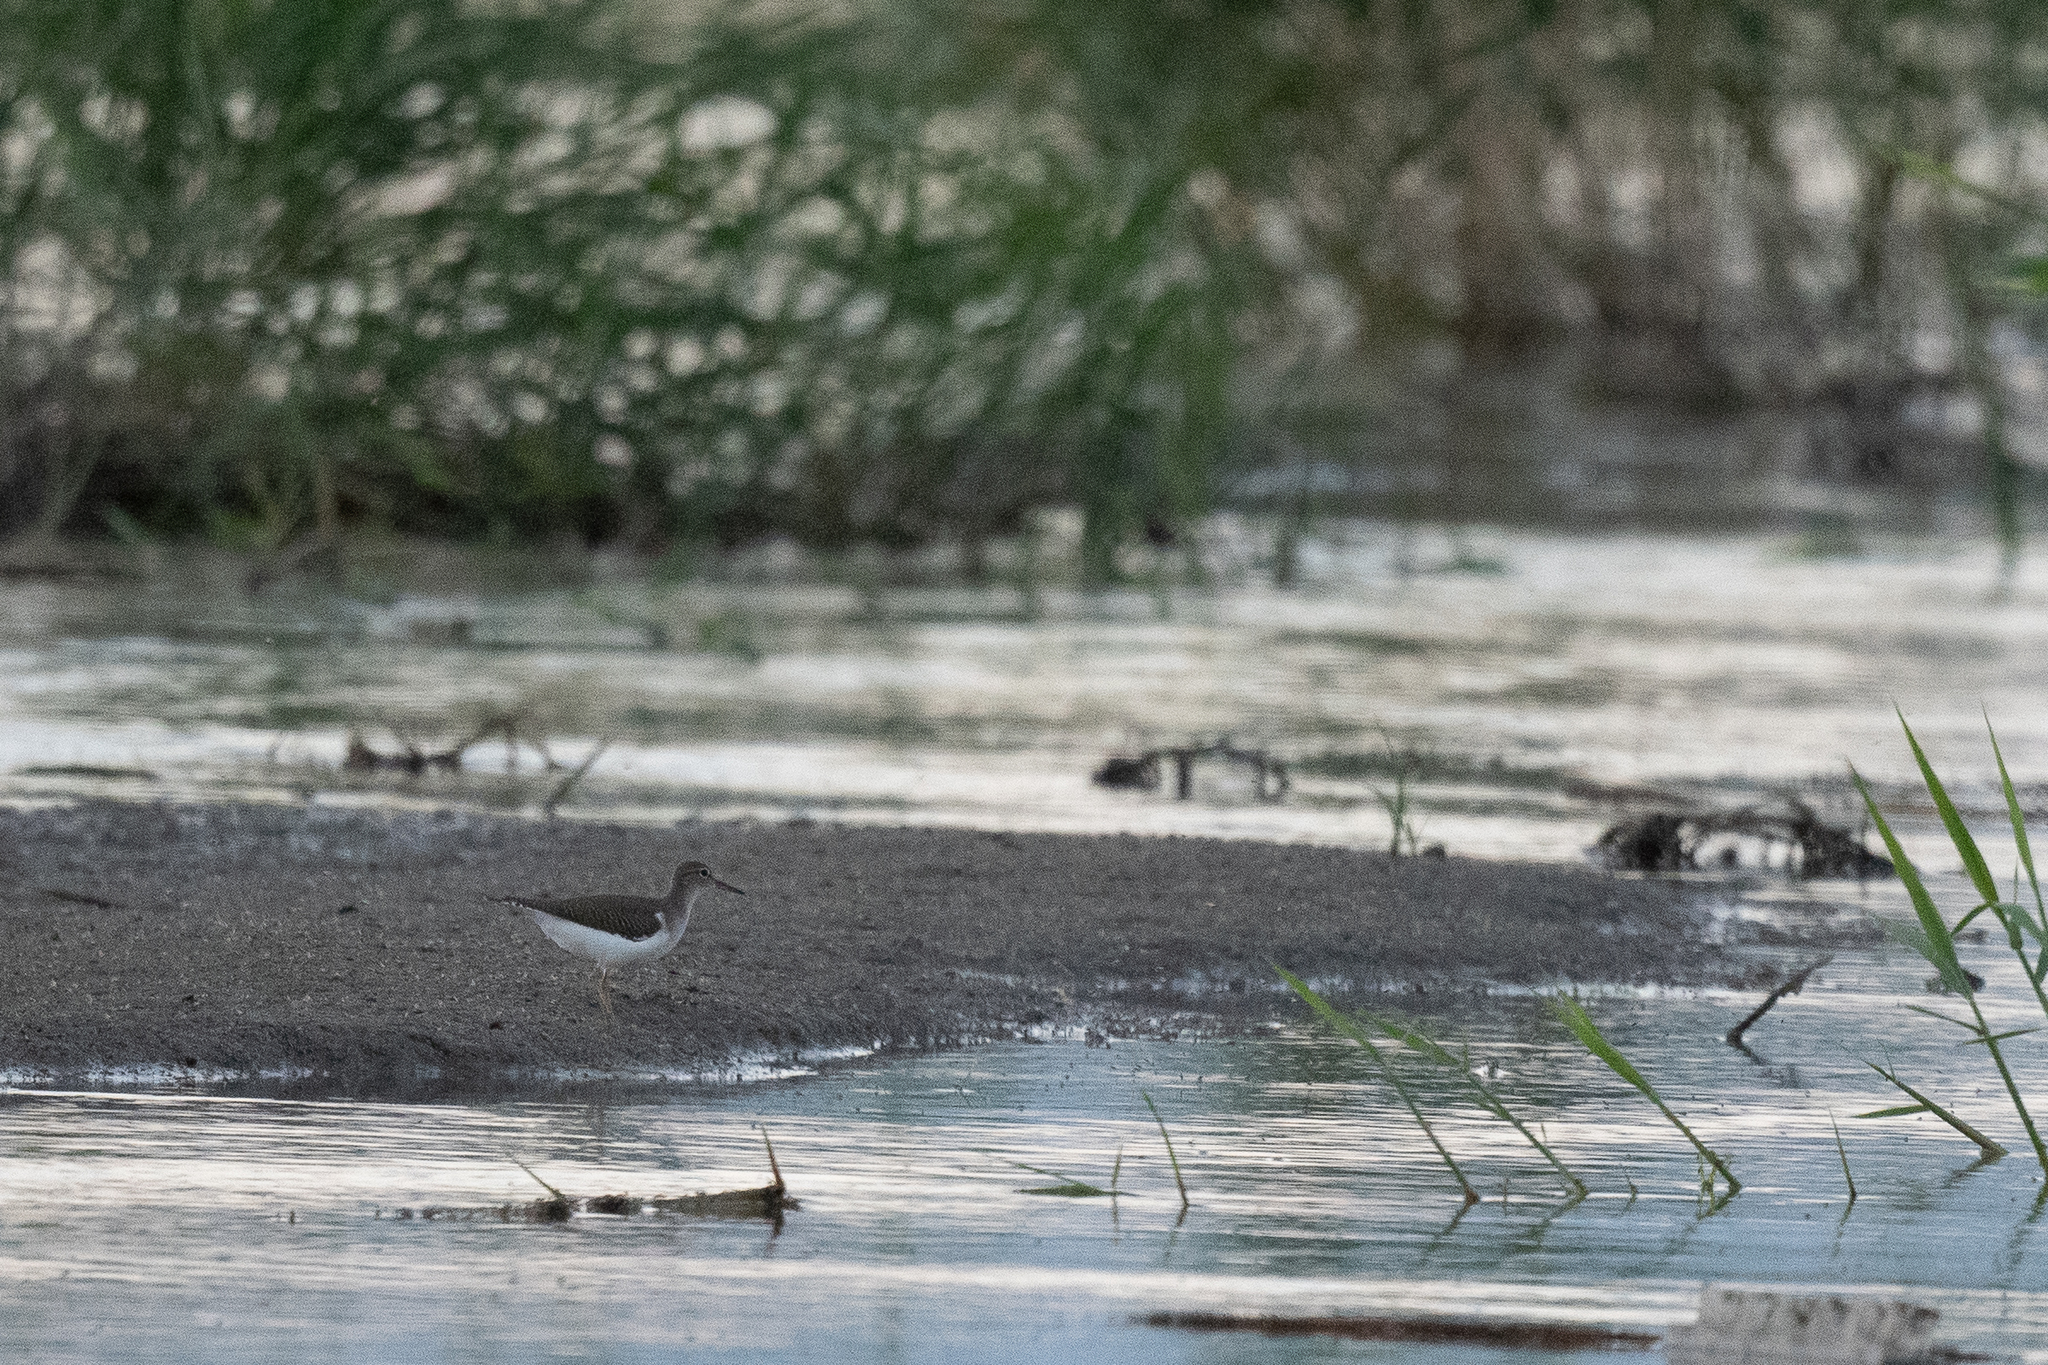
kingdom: Animalia
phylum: Chordata
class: Aves
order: Charadriiformes
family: Scolopacidae
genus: Actitis
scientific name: Actitis macularius
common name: Spotted sandpiper
